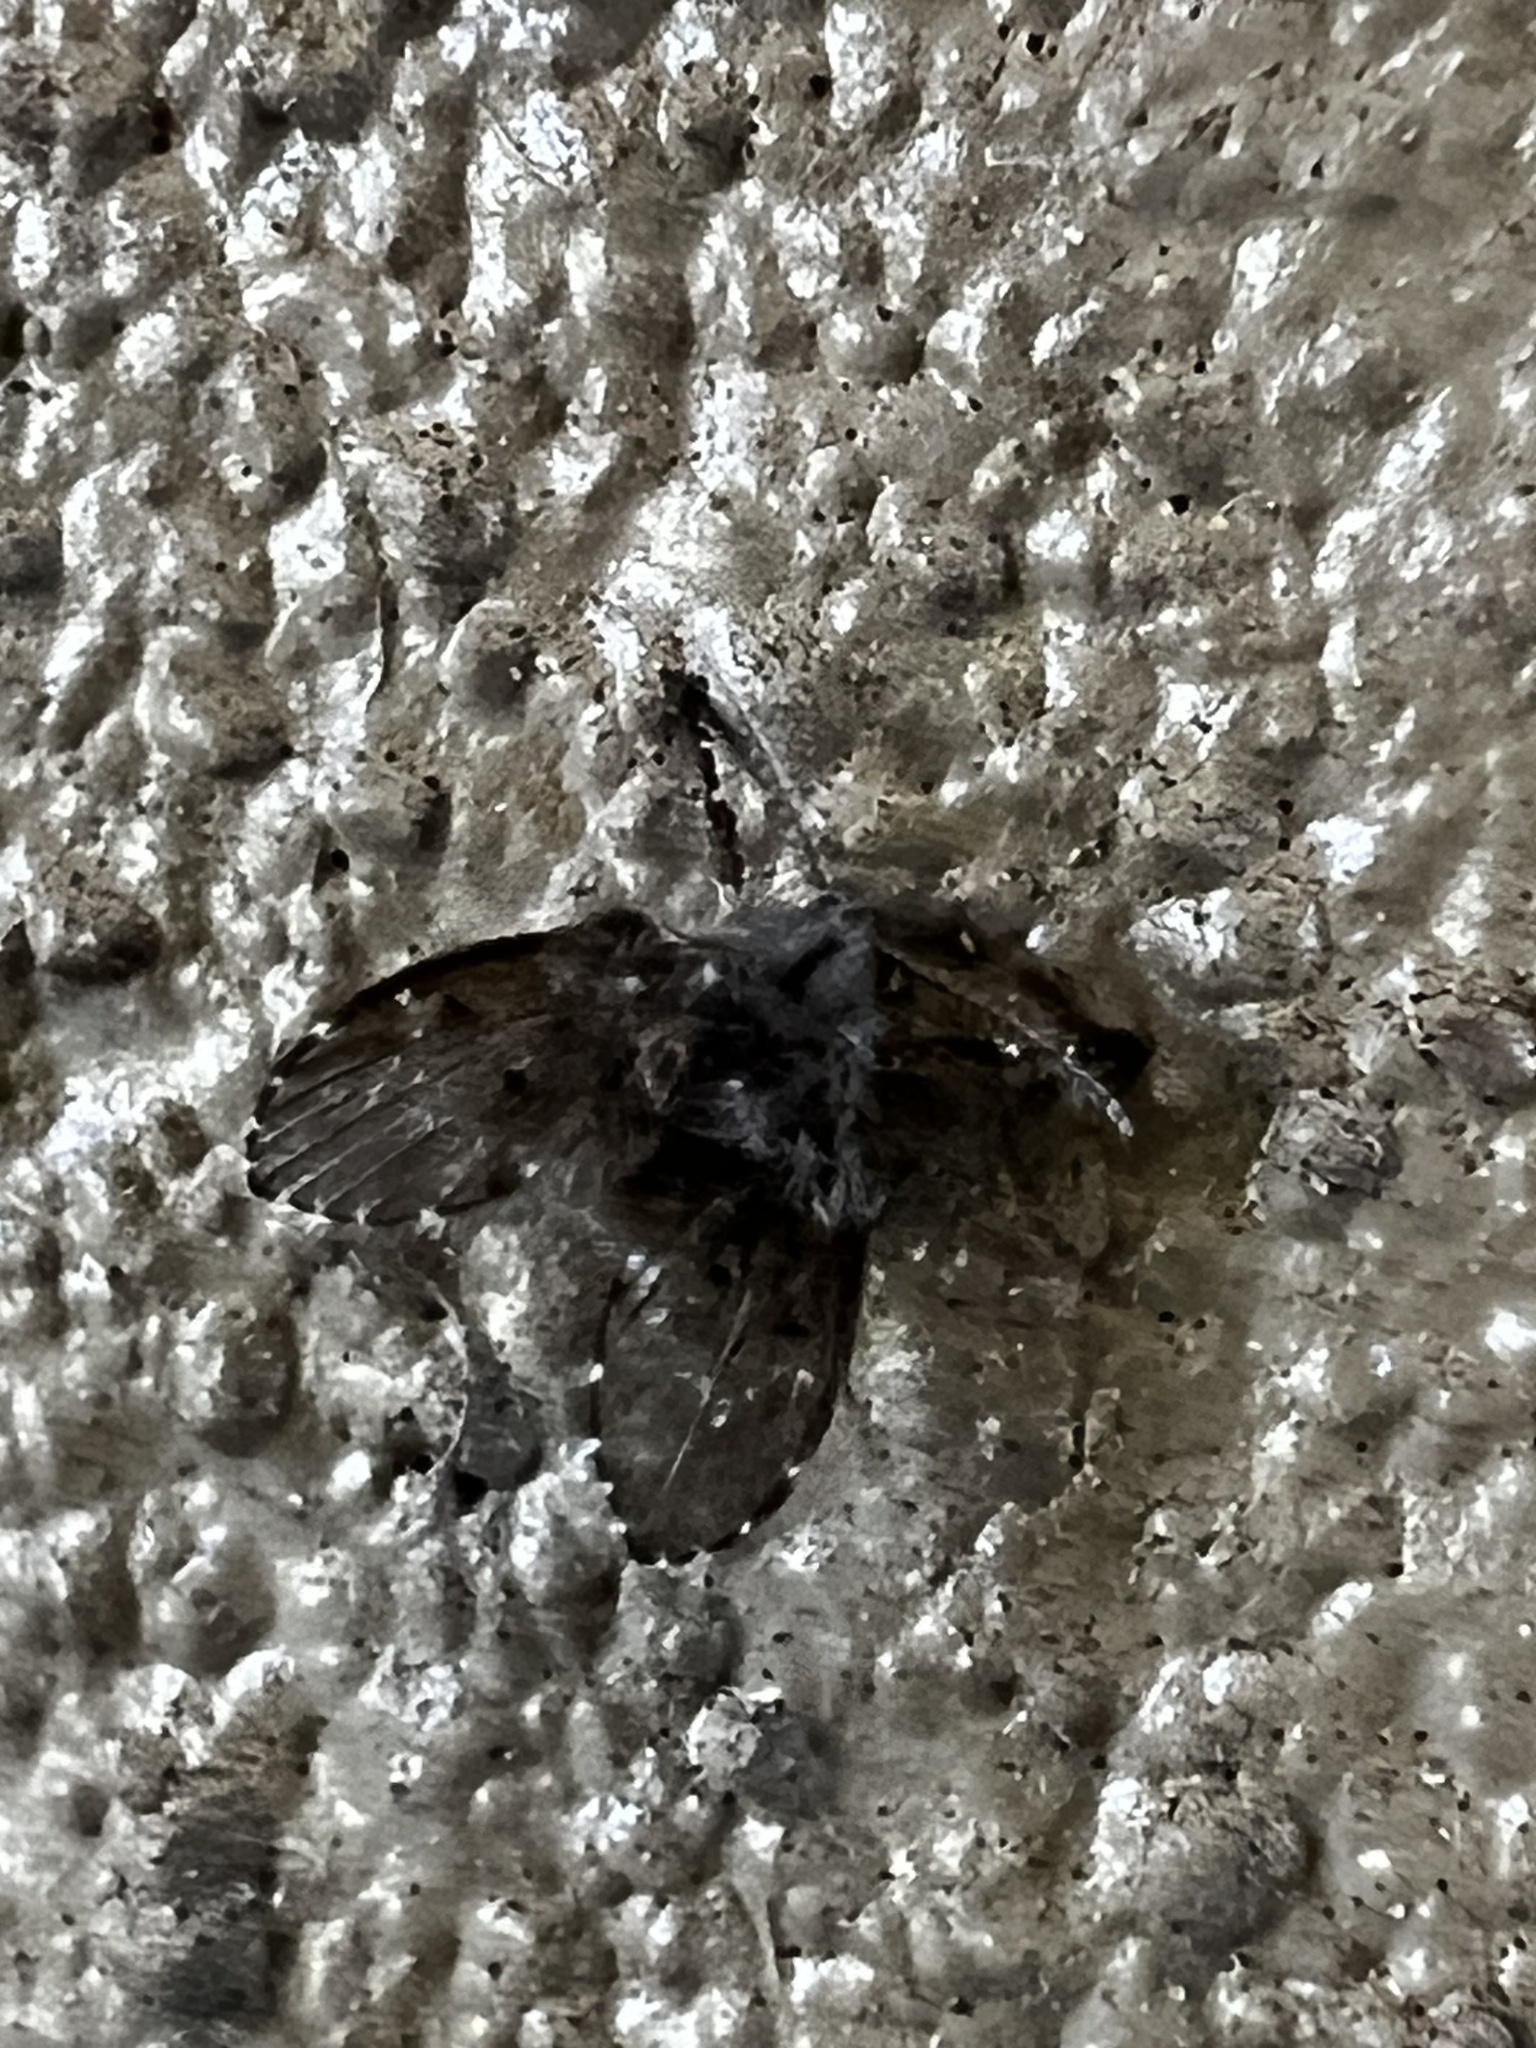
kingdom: Animalia
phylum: Arthropoda
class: Insecta
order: Diptera
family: Psychodidae
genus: Clogmia
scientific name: Clogmia albipunctatus
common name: White-spotted moth fly
